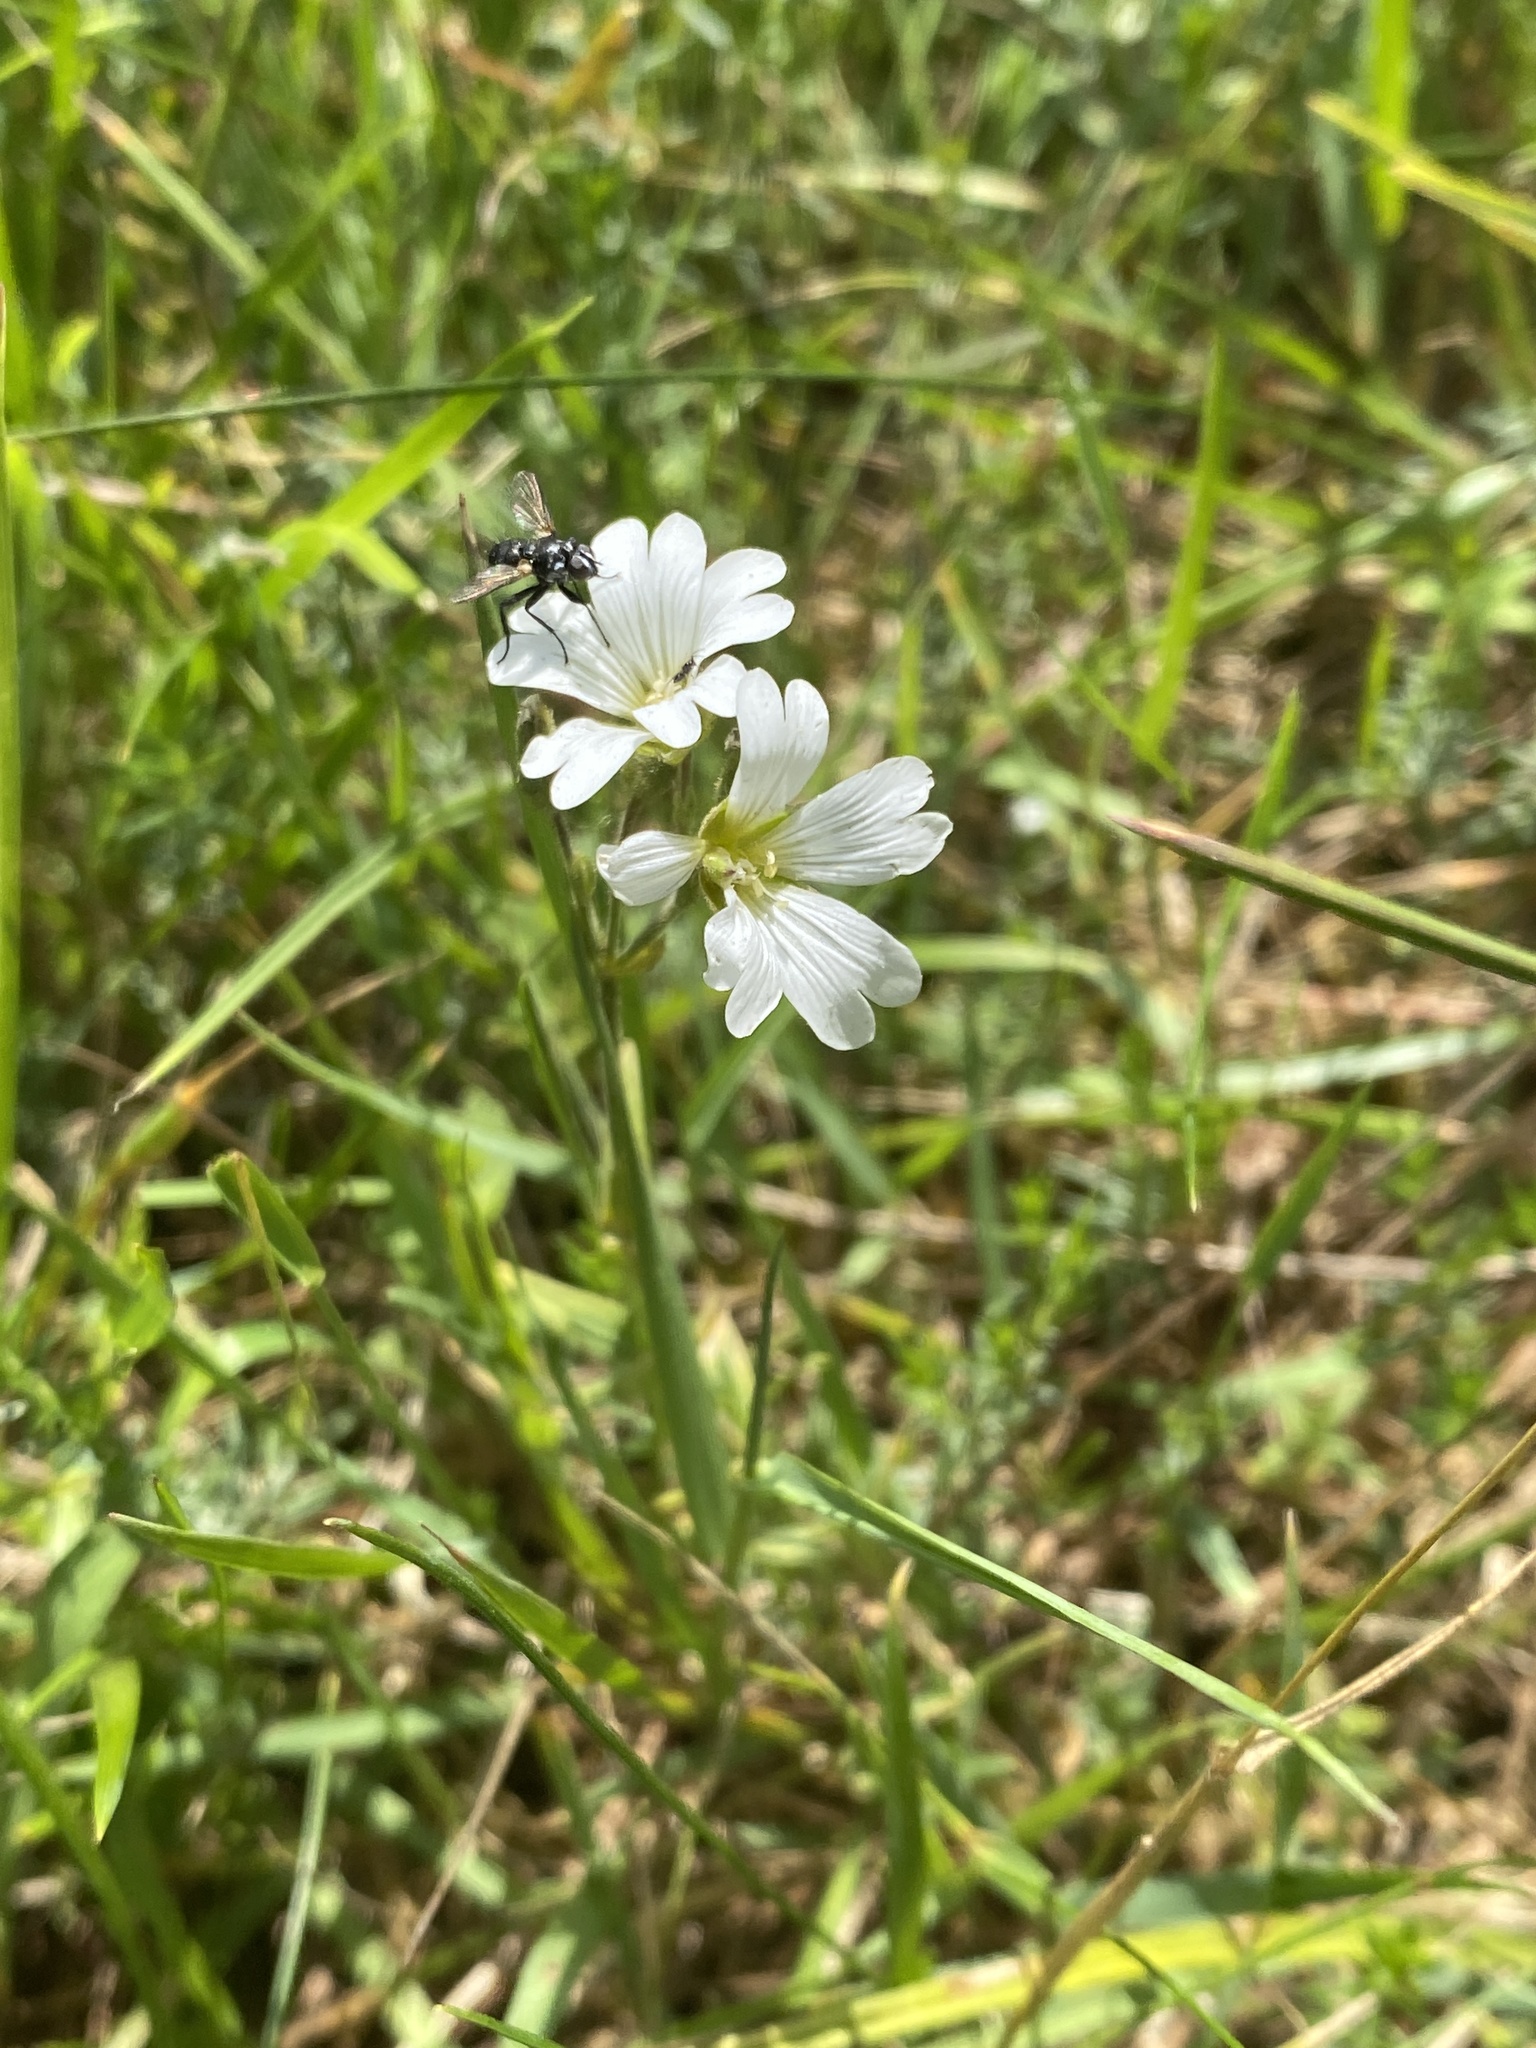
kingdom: Plantae
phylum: Tracheophyta
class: Magnoliopsida
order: Caryophyllales
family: Caryophyllaceae
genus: Cerastium
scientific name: Cerastium arvense
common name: Field mouse-ear
